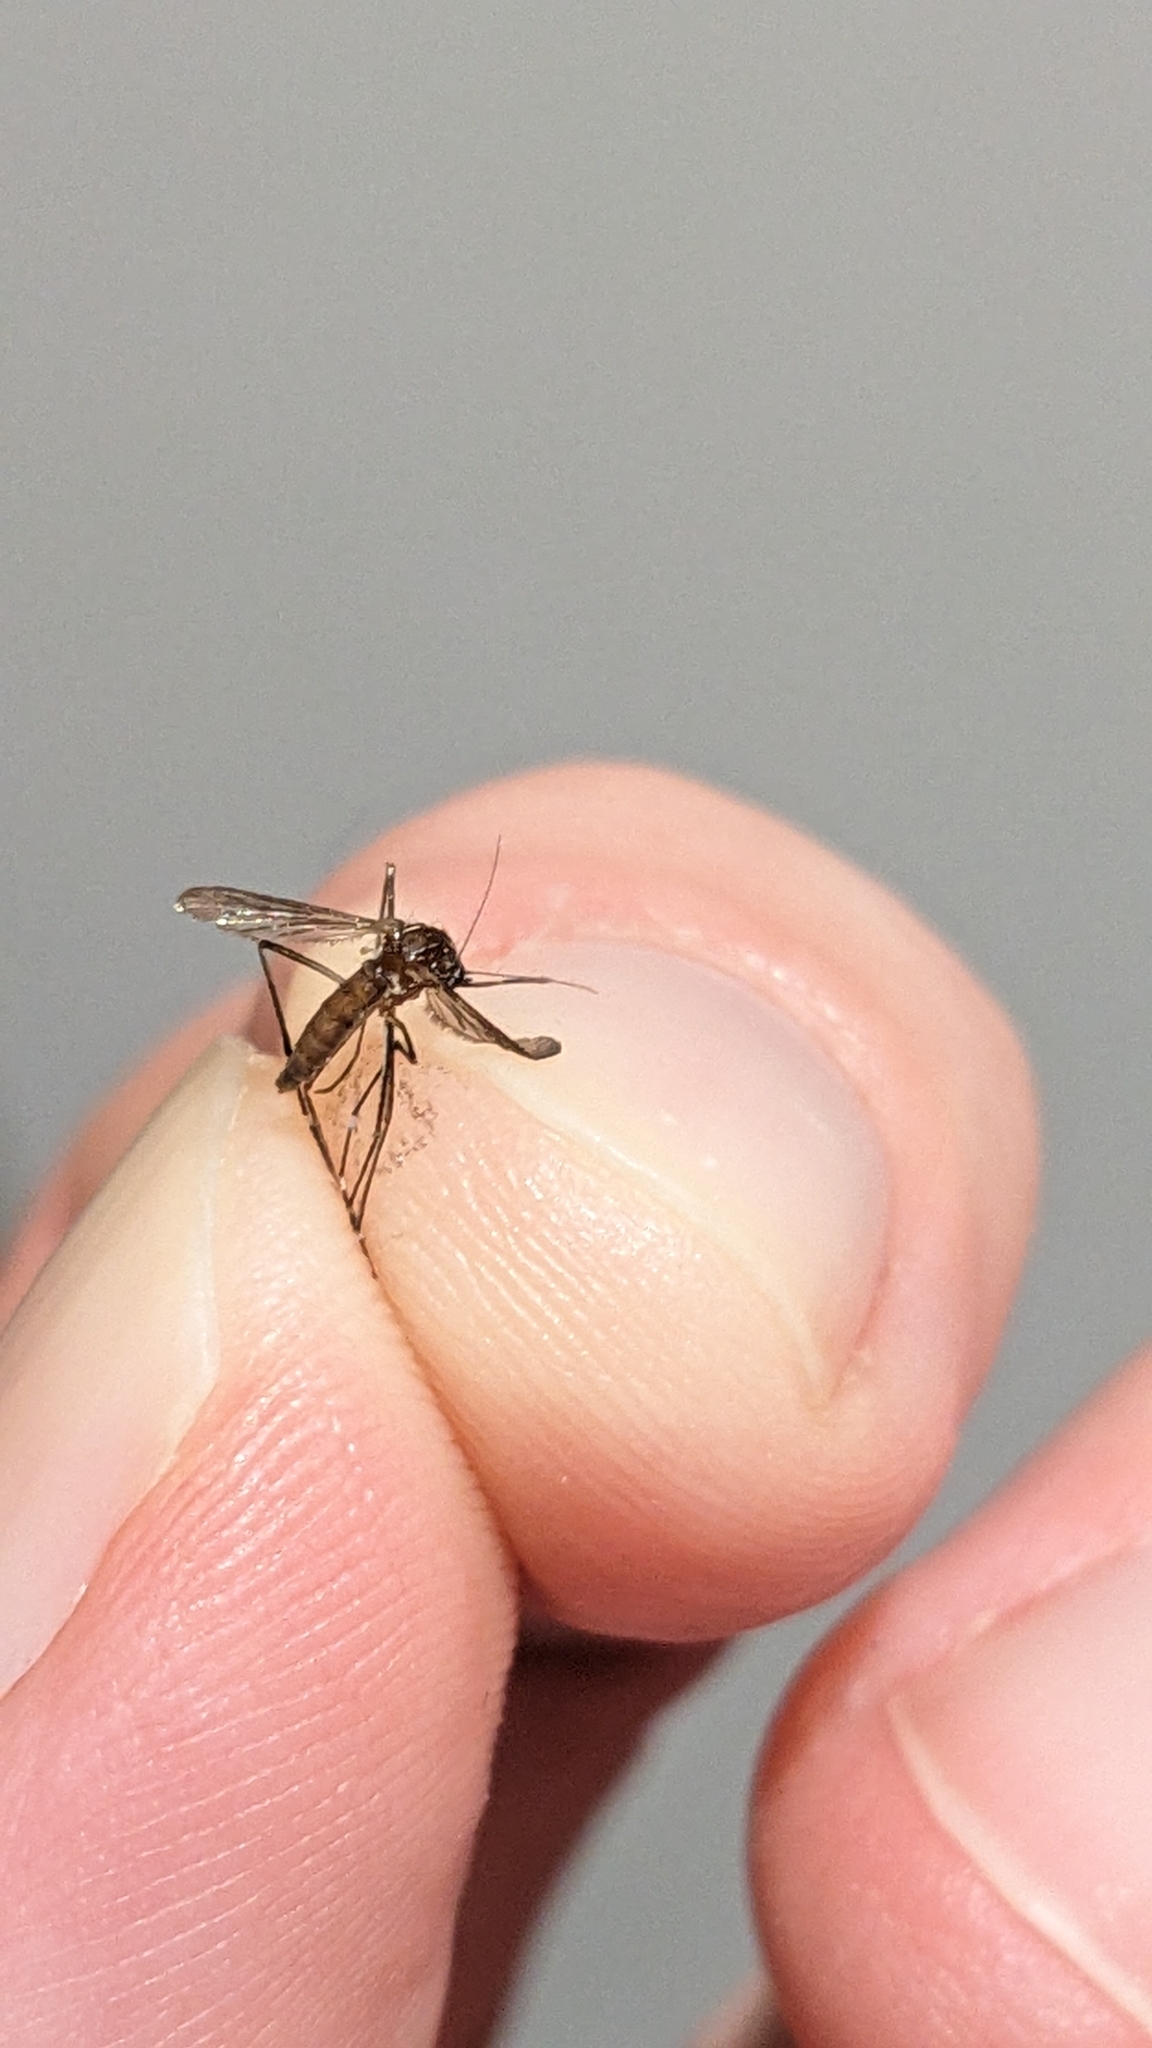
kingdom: Animalia
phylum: Arthropoda
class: Insecta
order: Diptera
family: Culicidae
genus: Aedes
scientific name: Aedes notoscriptus
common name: Australian backyard mosquito
